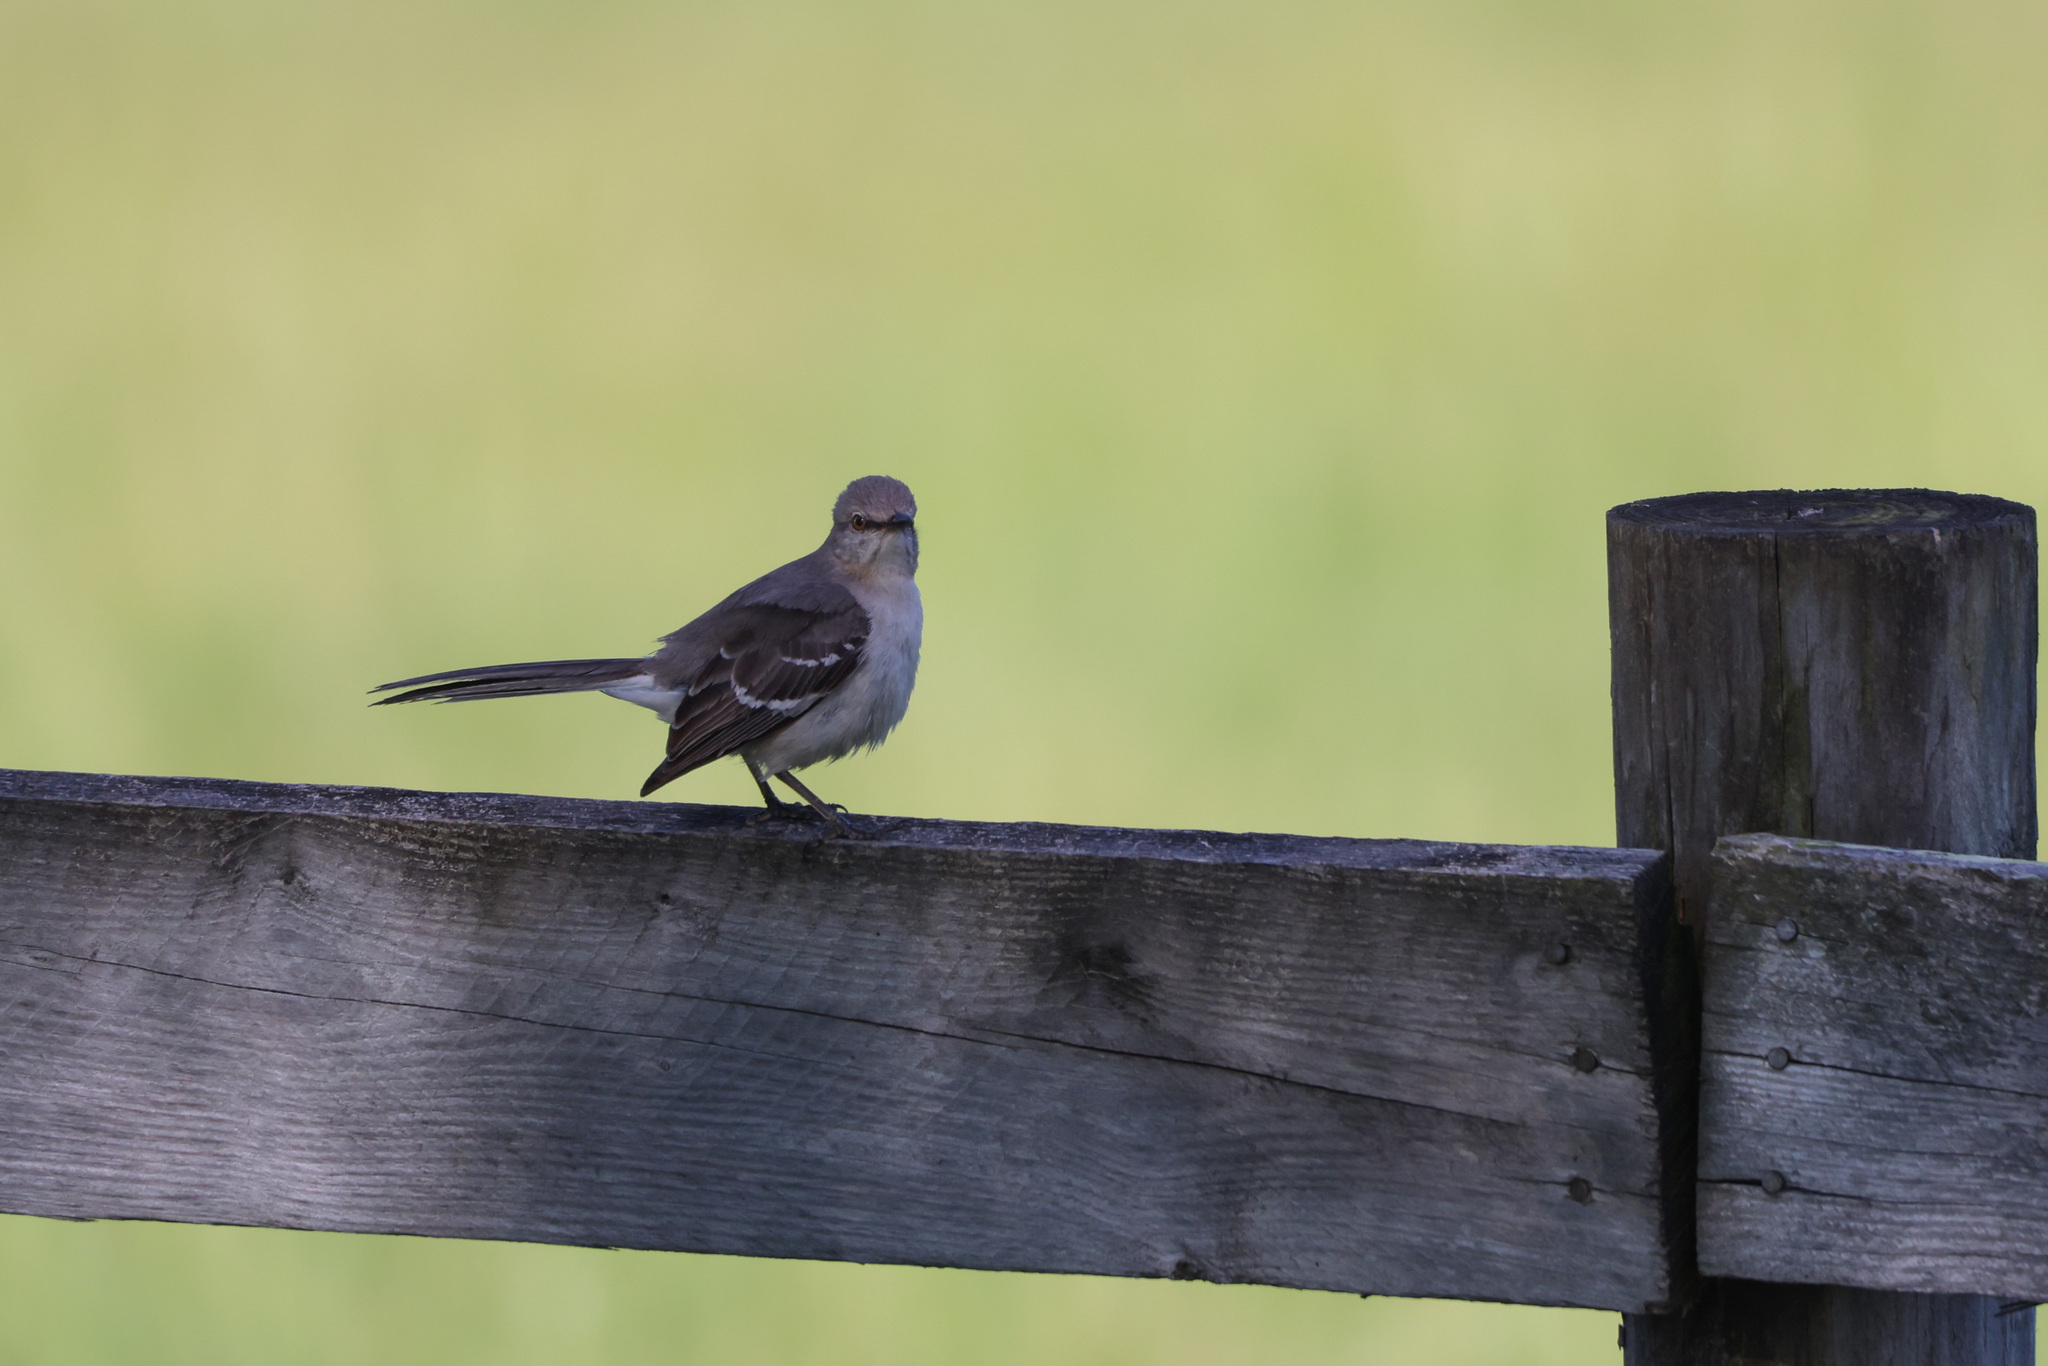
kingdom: Animalia
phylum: Chordata
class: Aves
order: Passeriformes
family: Mimidae
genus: Mimus
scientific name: Mimus polyglottos
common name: Northern mockingbird
